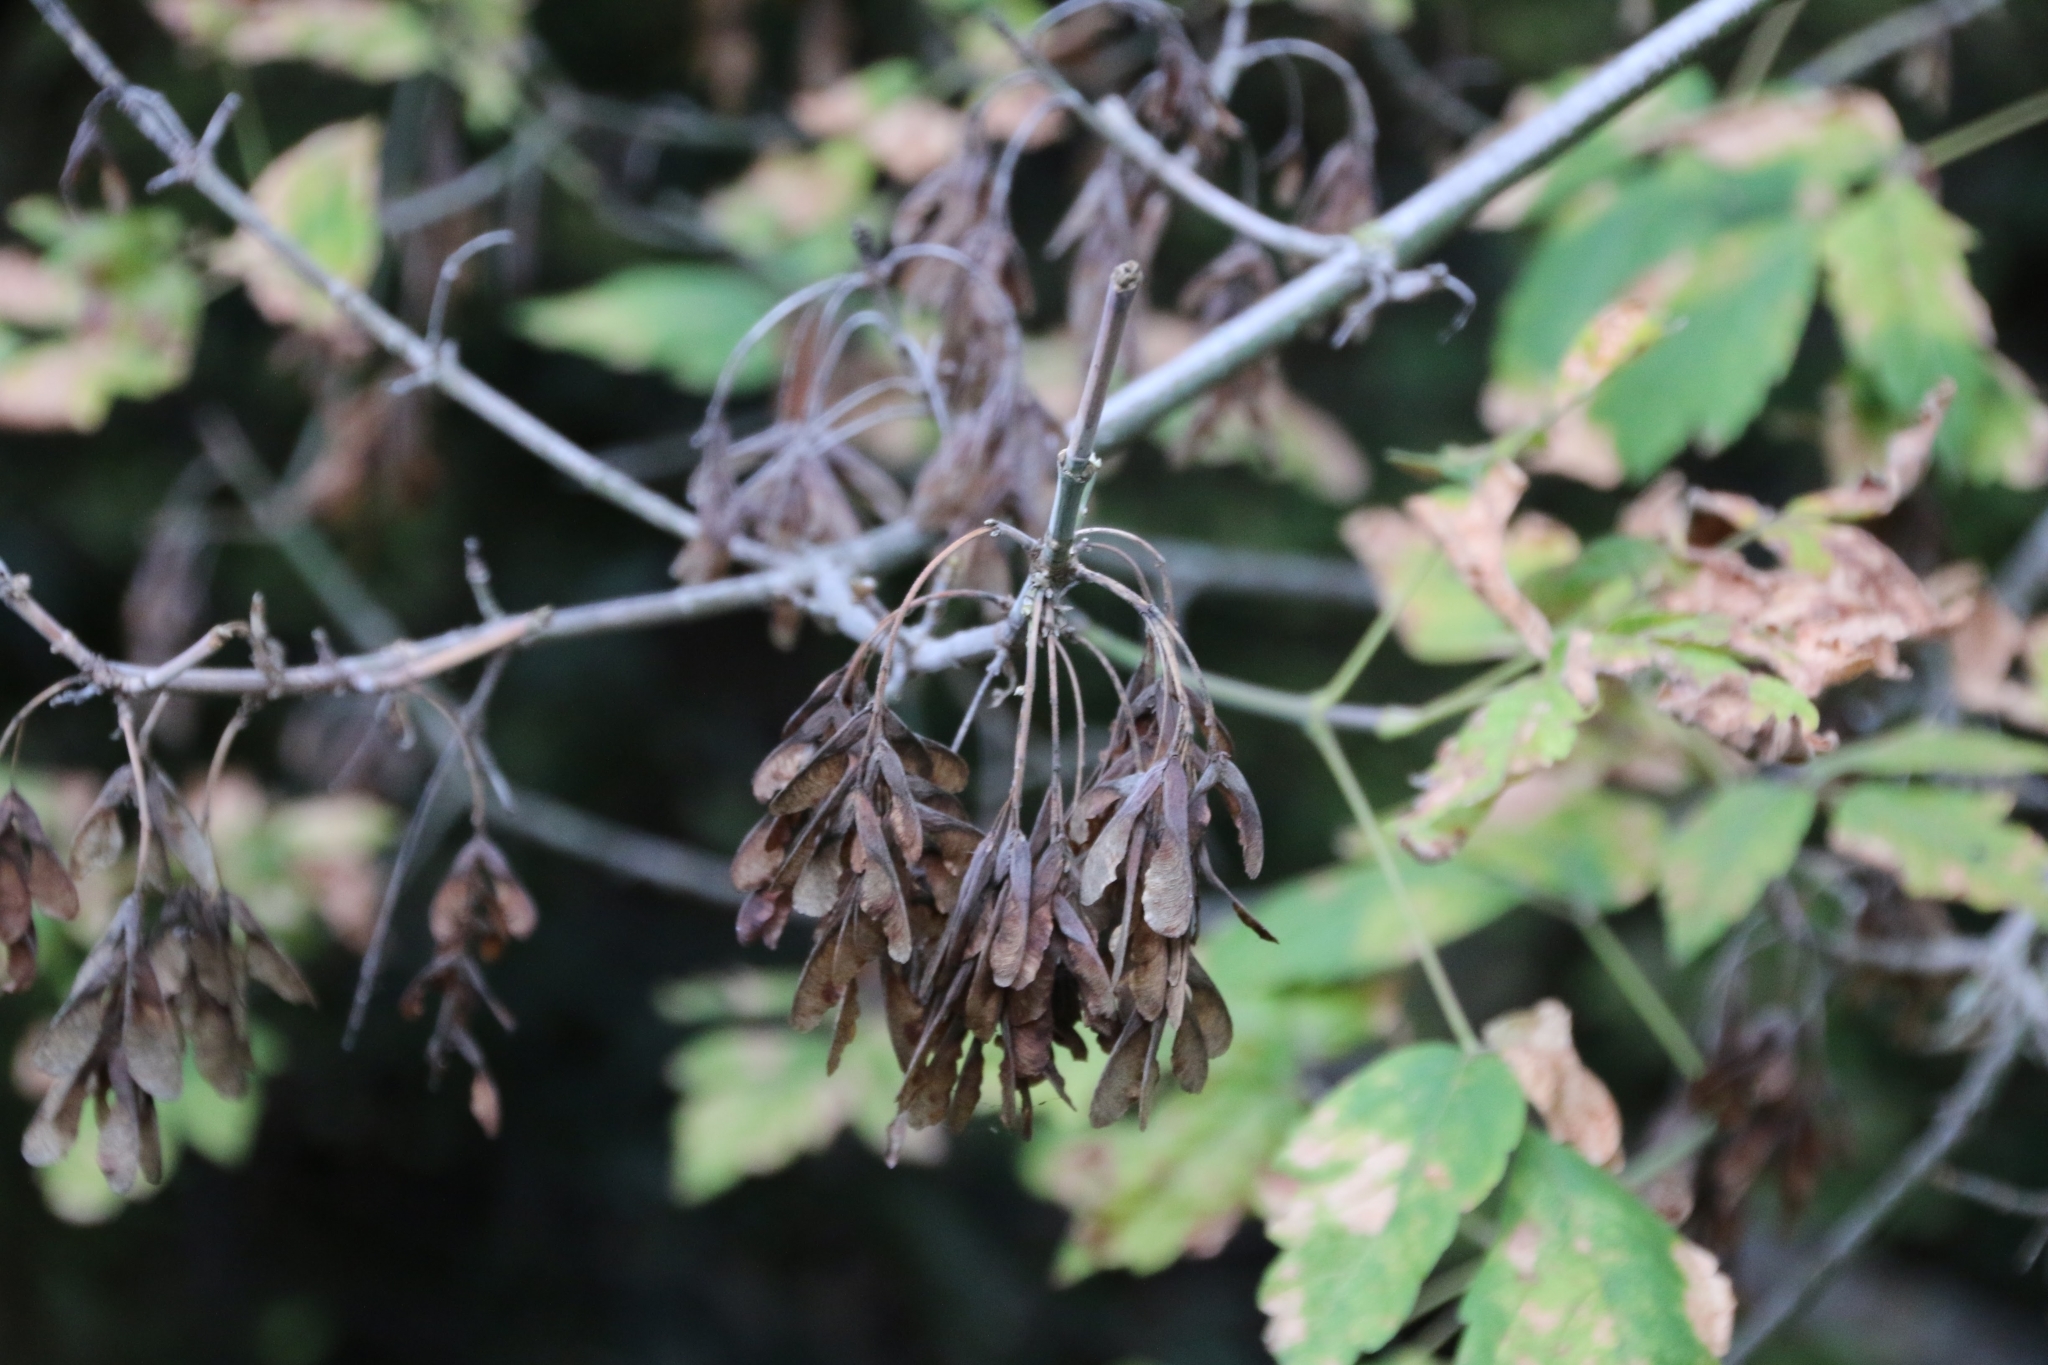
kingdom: Plantae
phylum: Tracheophyta
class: Magnoliopsida
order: Sapindales
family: Sapindaceae
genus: Acer
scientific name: Acer negundo
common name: Ashleaf maple
